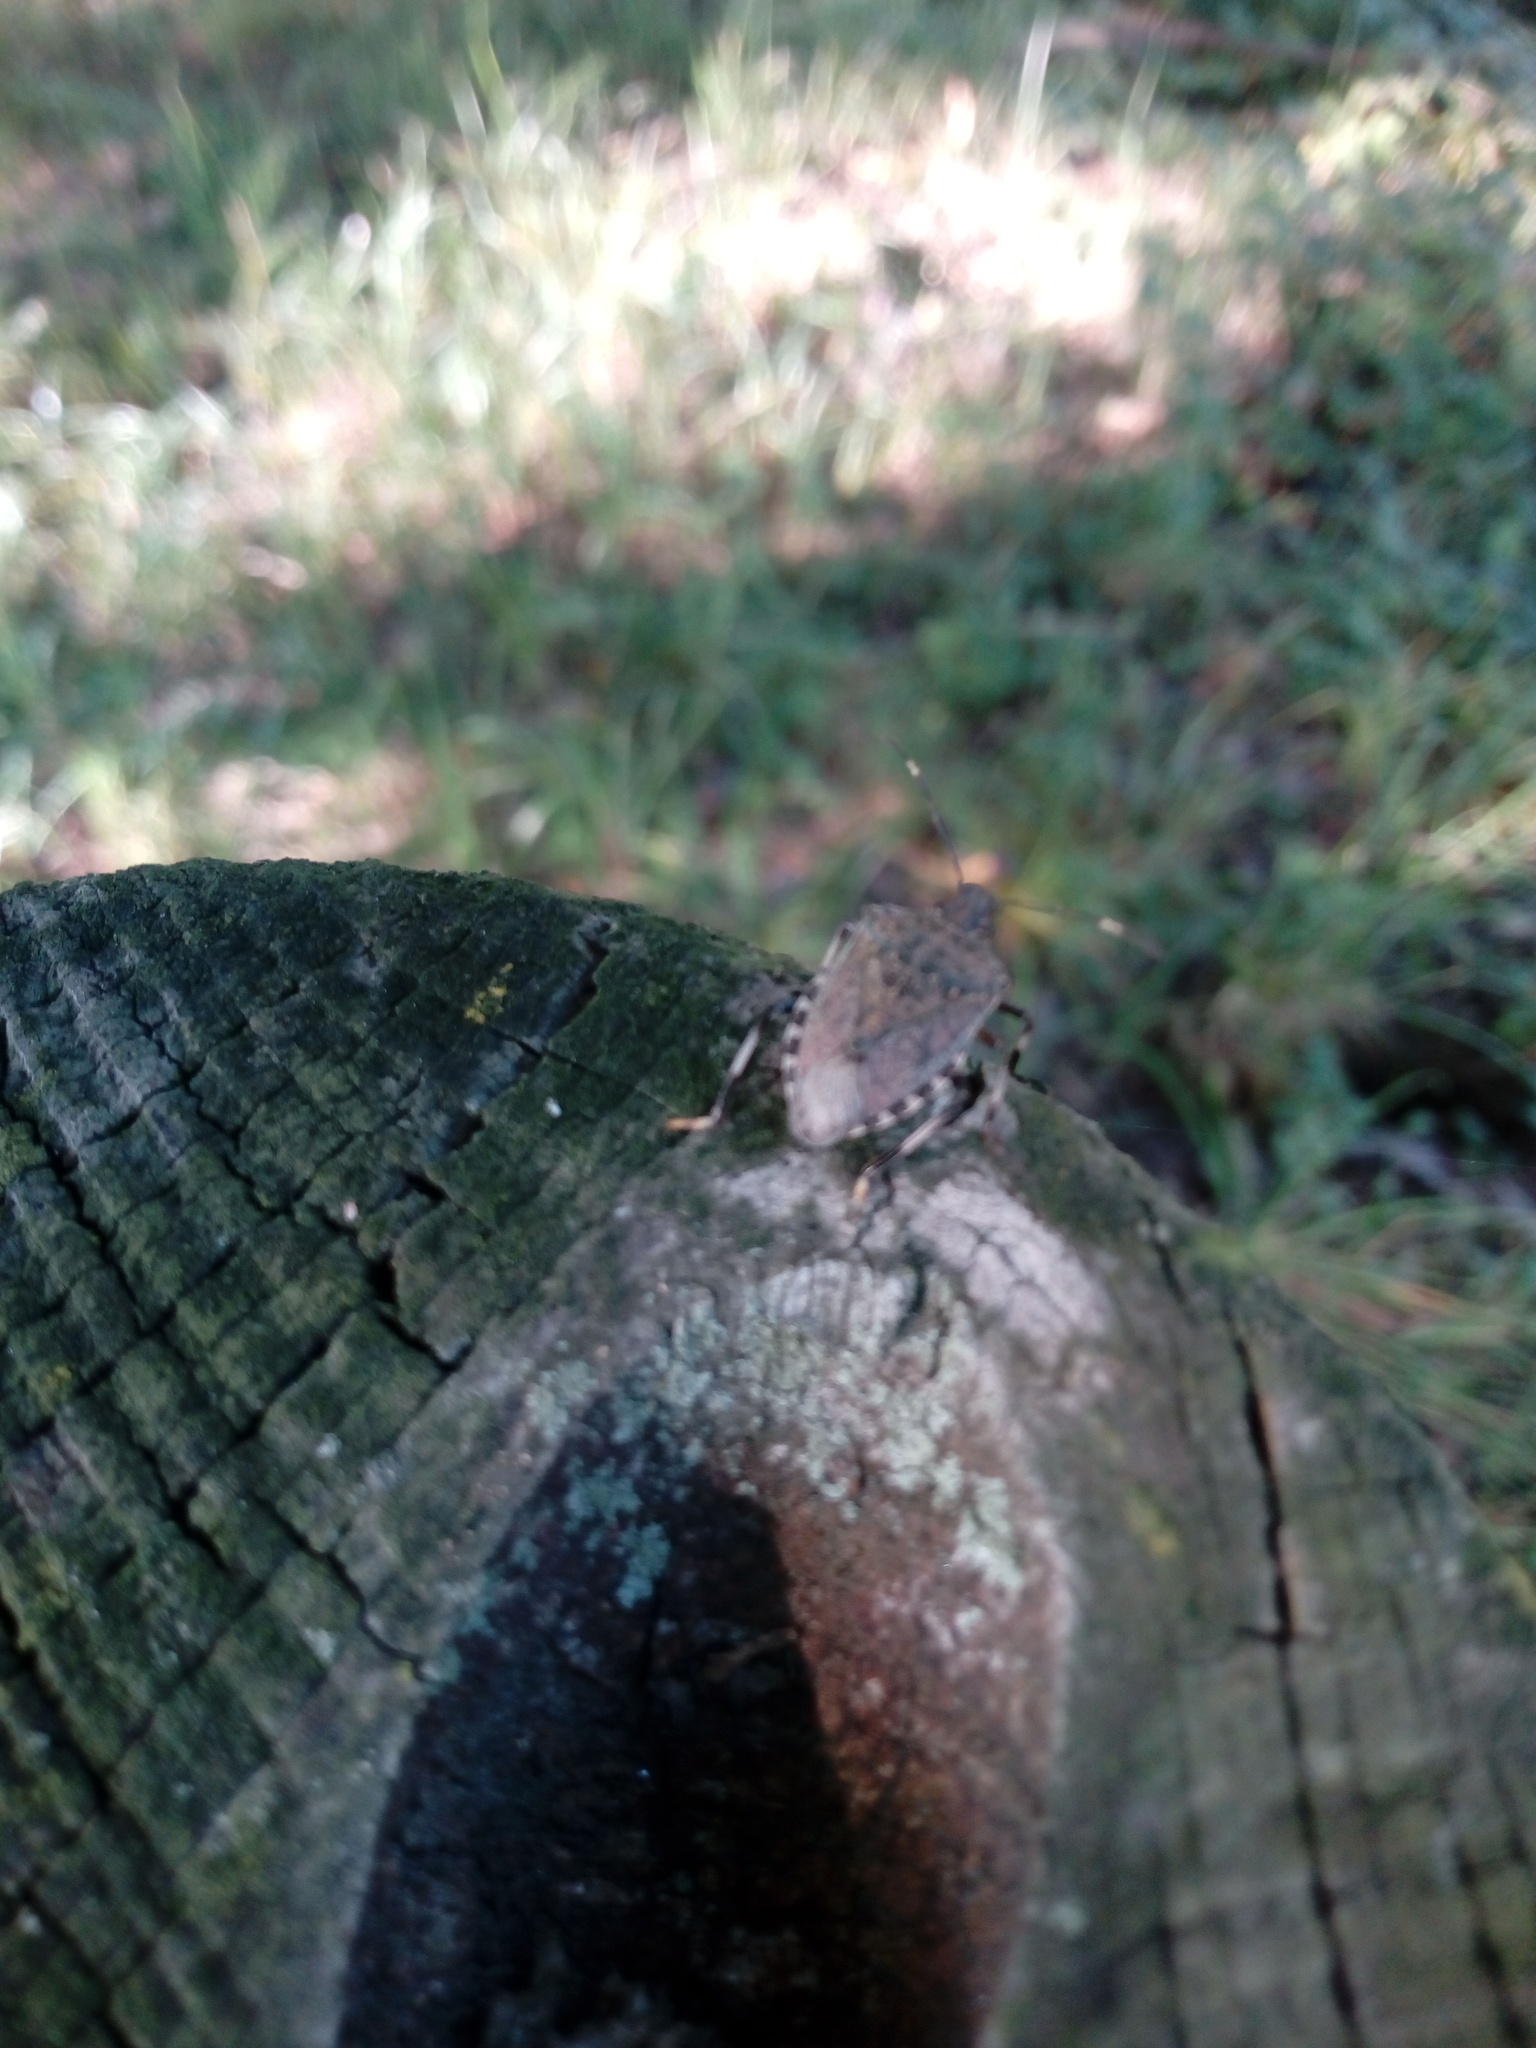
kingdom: Animalia
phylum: Arthropoda
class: Insecta
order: Hemiptera
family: Pentatomidae
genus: Halyomorpha
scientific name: Halyomorpha halys
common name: Brown marmorated stink bug
